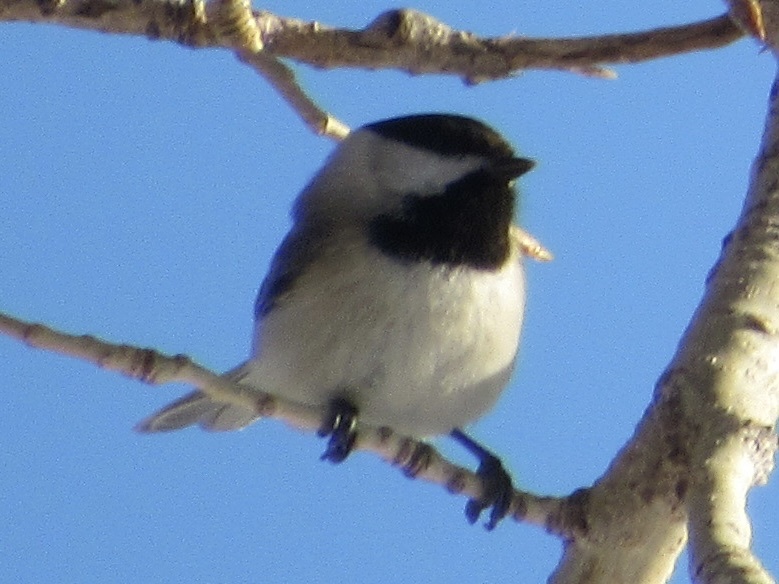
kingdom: Animalia
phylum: Chordata
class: Aves
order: Passeriformes
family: Paridae
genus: Poecile
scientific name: Poecile carolinensis
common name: Carolina chickadee
